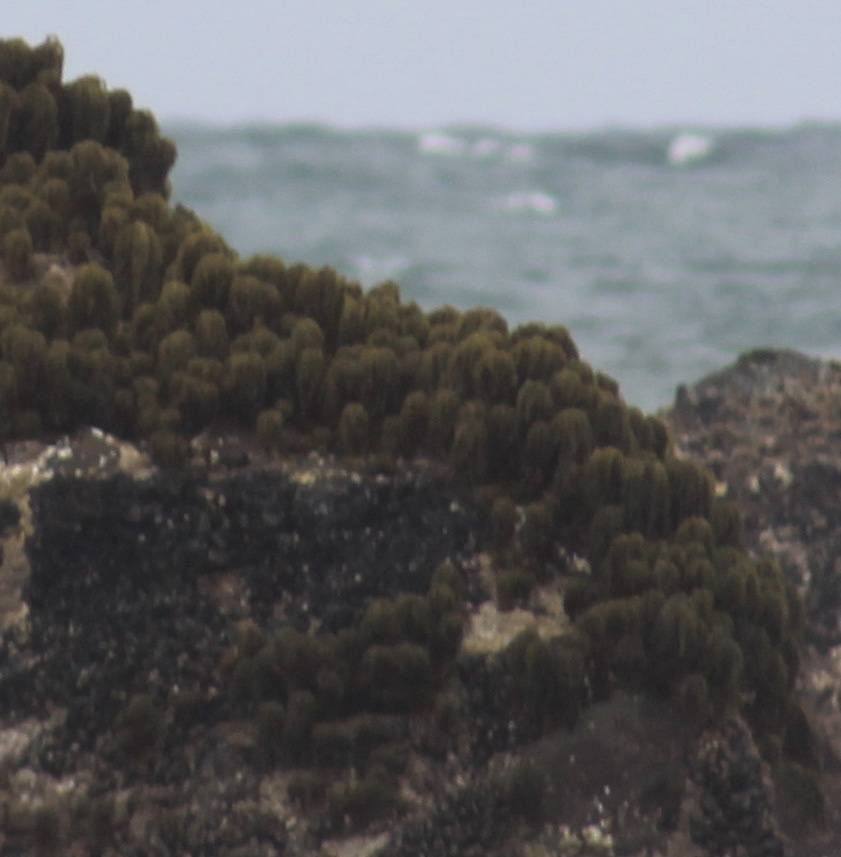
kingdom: Chromista
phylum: Ochrophyta
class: Phaeophyceae
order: Laminariales
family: Laminariaceae
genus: Postelsia
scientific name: Postelsia palmiformis
